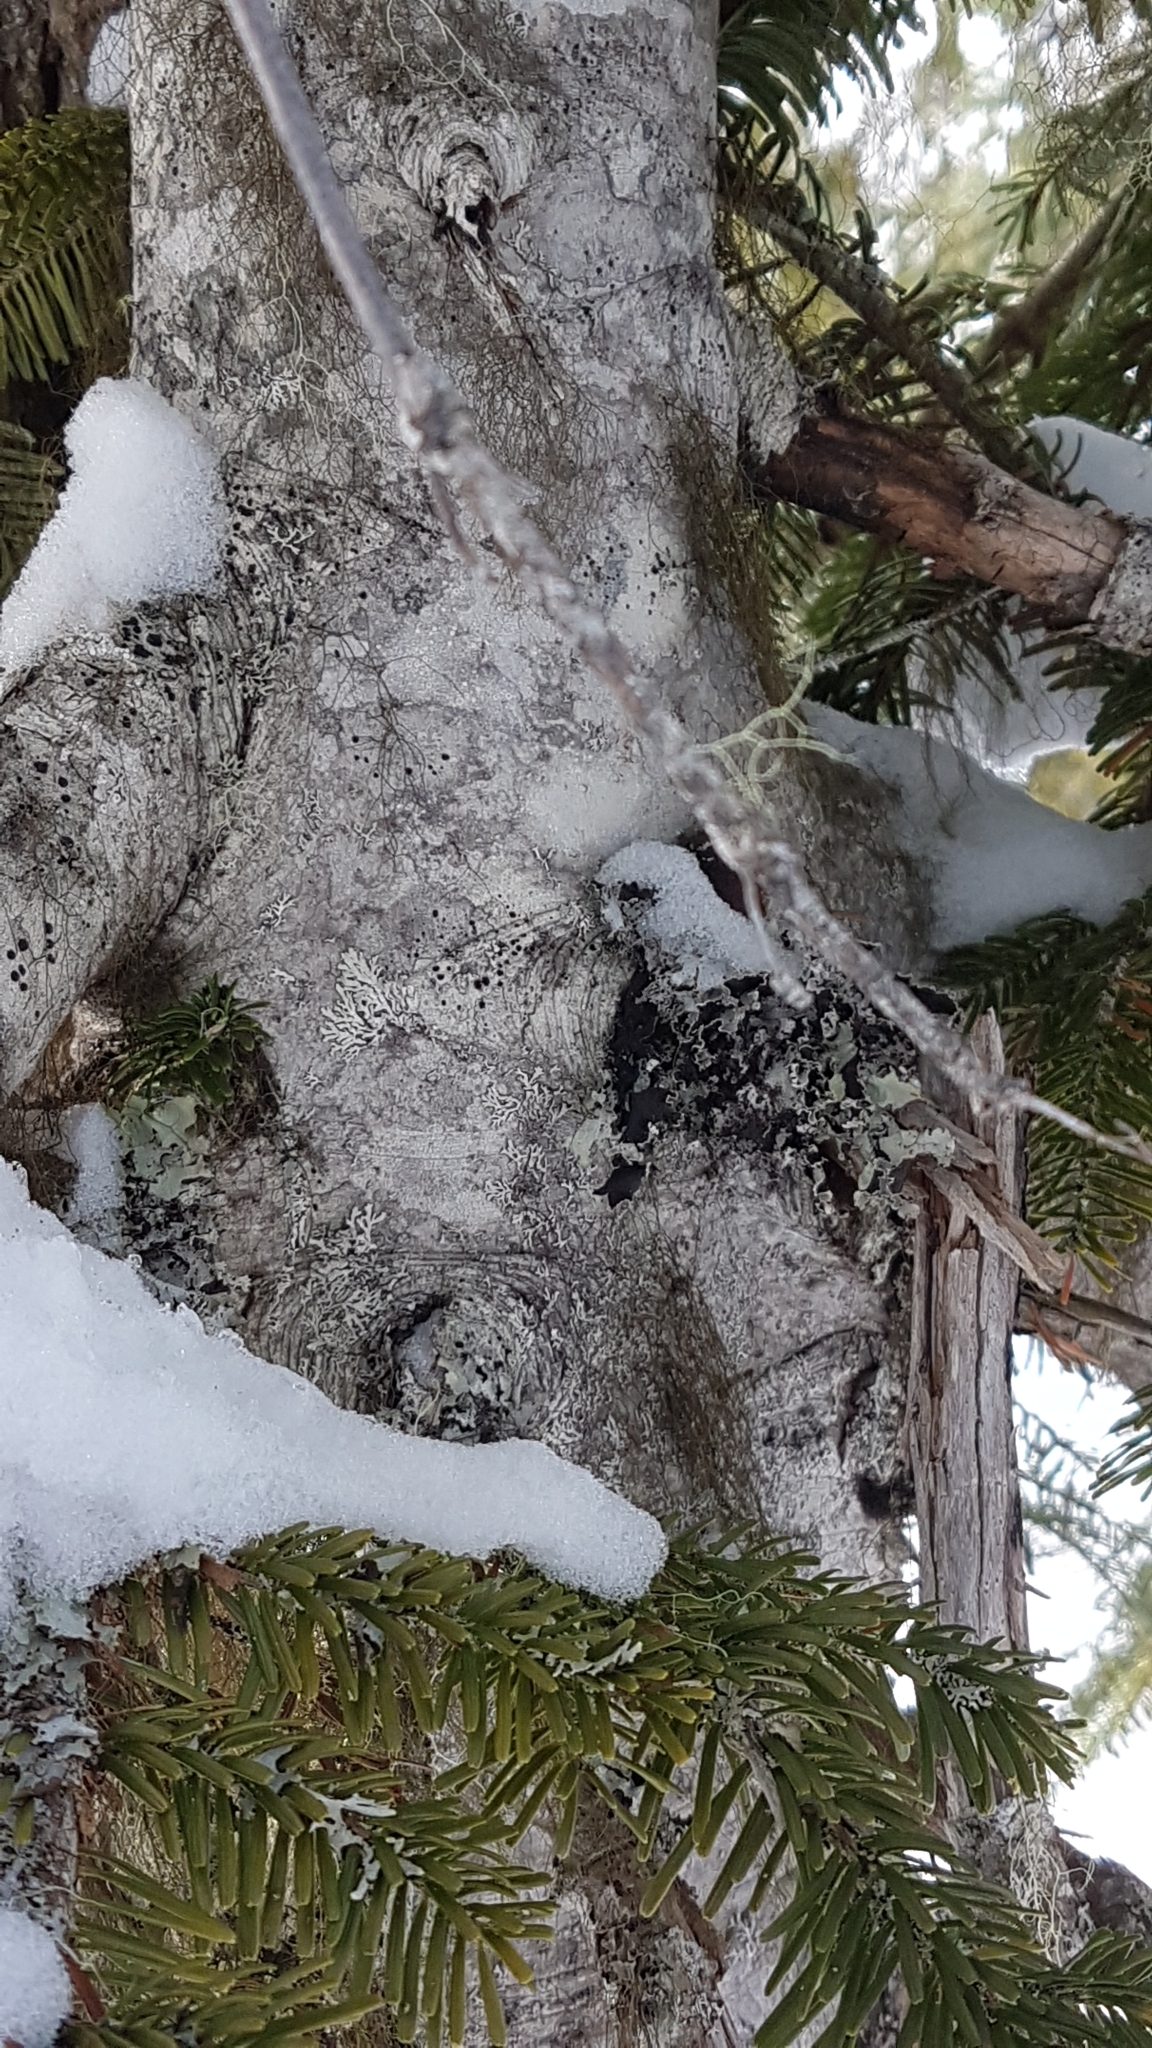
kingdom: Plantae
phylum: Tracheophyta
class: Pinopsida
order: Pinales
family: Pinaceae
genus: Abies
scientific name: Abies amabilis
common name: Pacific silver fir
